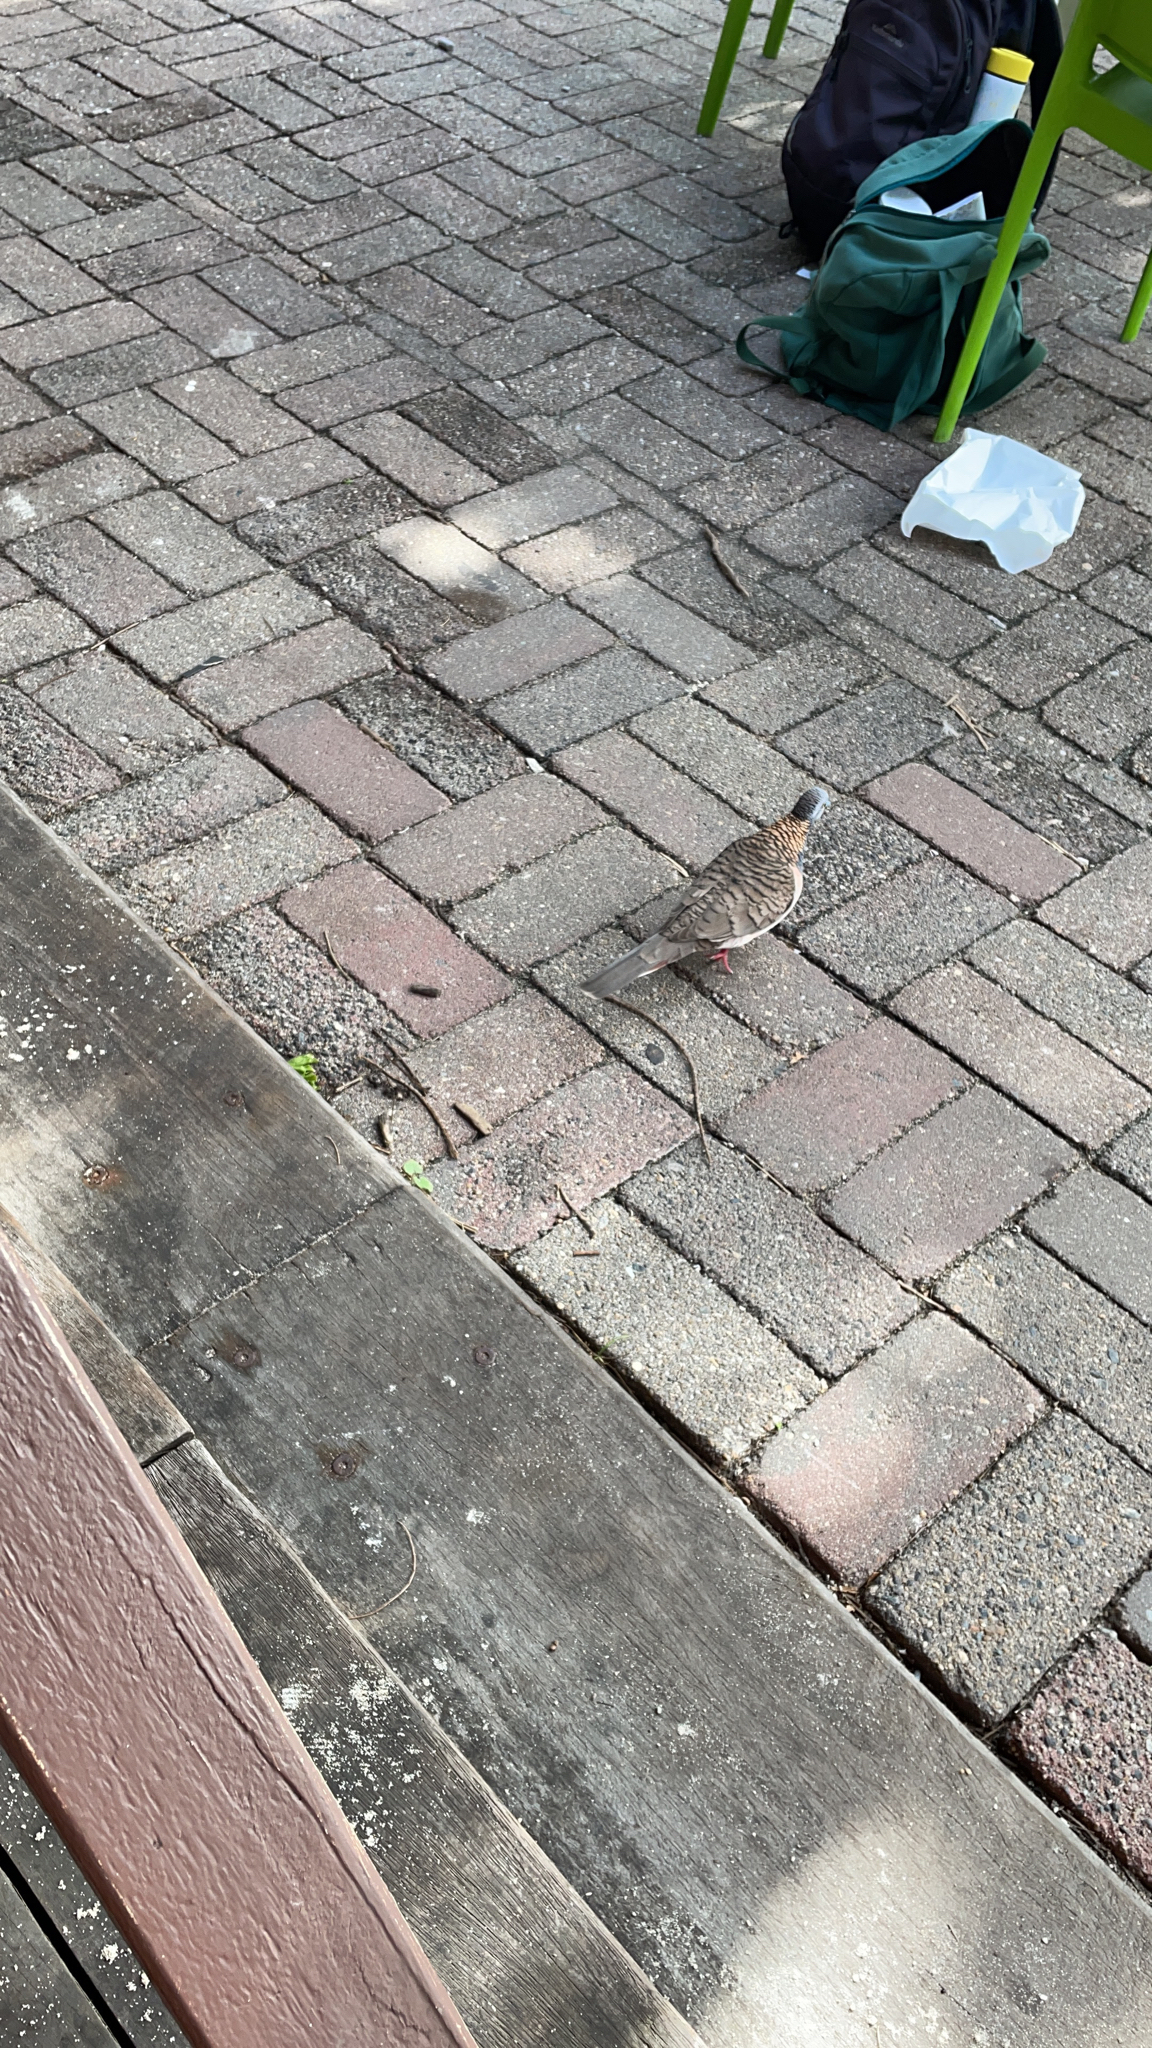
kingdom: Animalia
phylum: Chordata
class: Aves
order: Columbiformes
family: Columbidae
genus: Geopelia
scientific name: Geopelia humeralis
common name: Bar-shouldered dove
